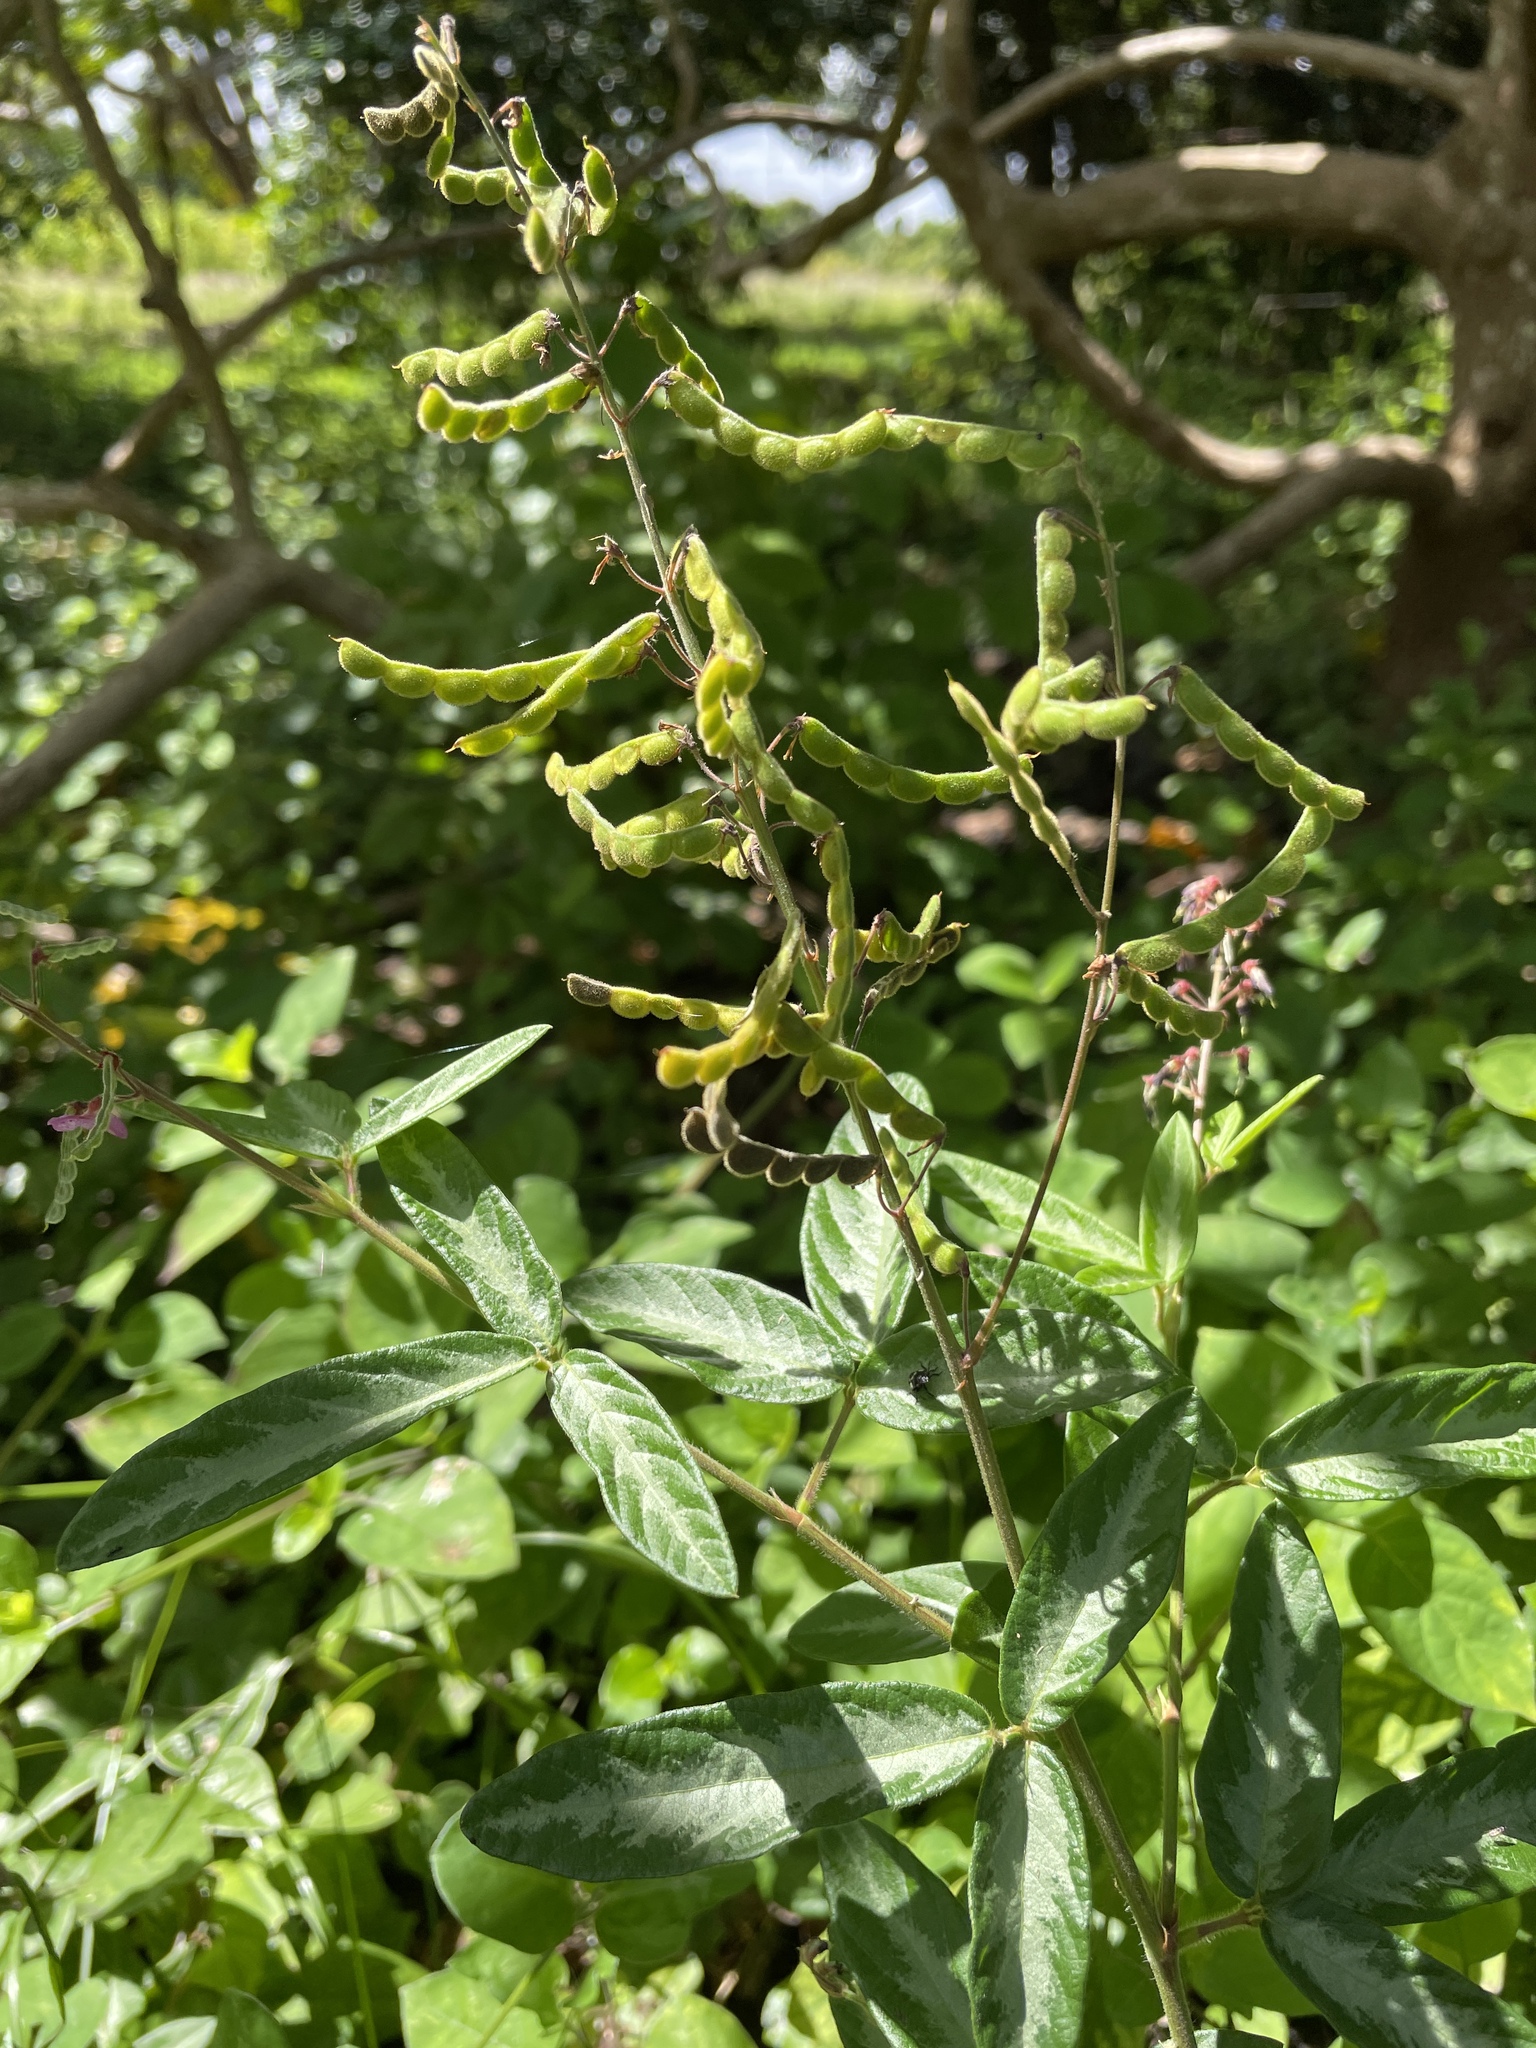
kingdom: Plantae
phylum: Tracheophyta
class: Magnoliopsida
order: Fabales
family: Fabaceae
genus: Desmodium
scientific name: Desmodium incanum
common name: Tickclover
